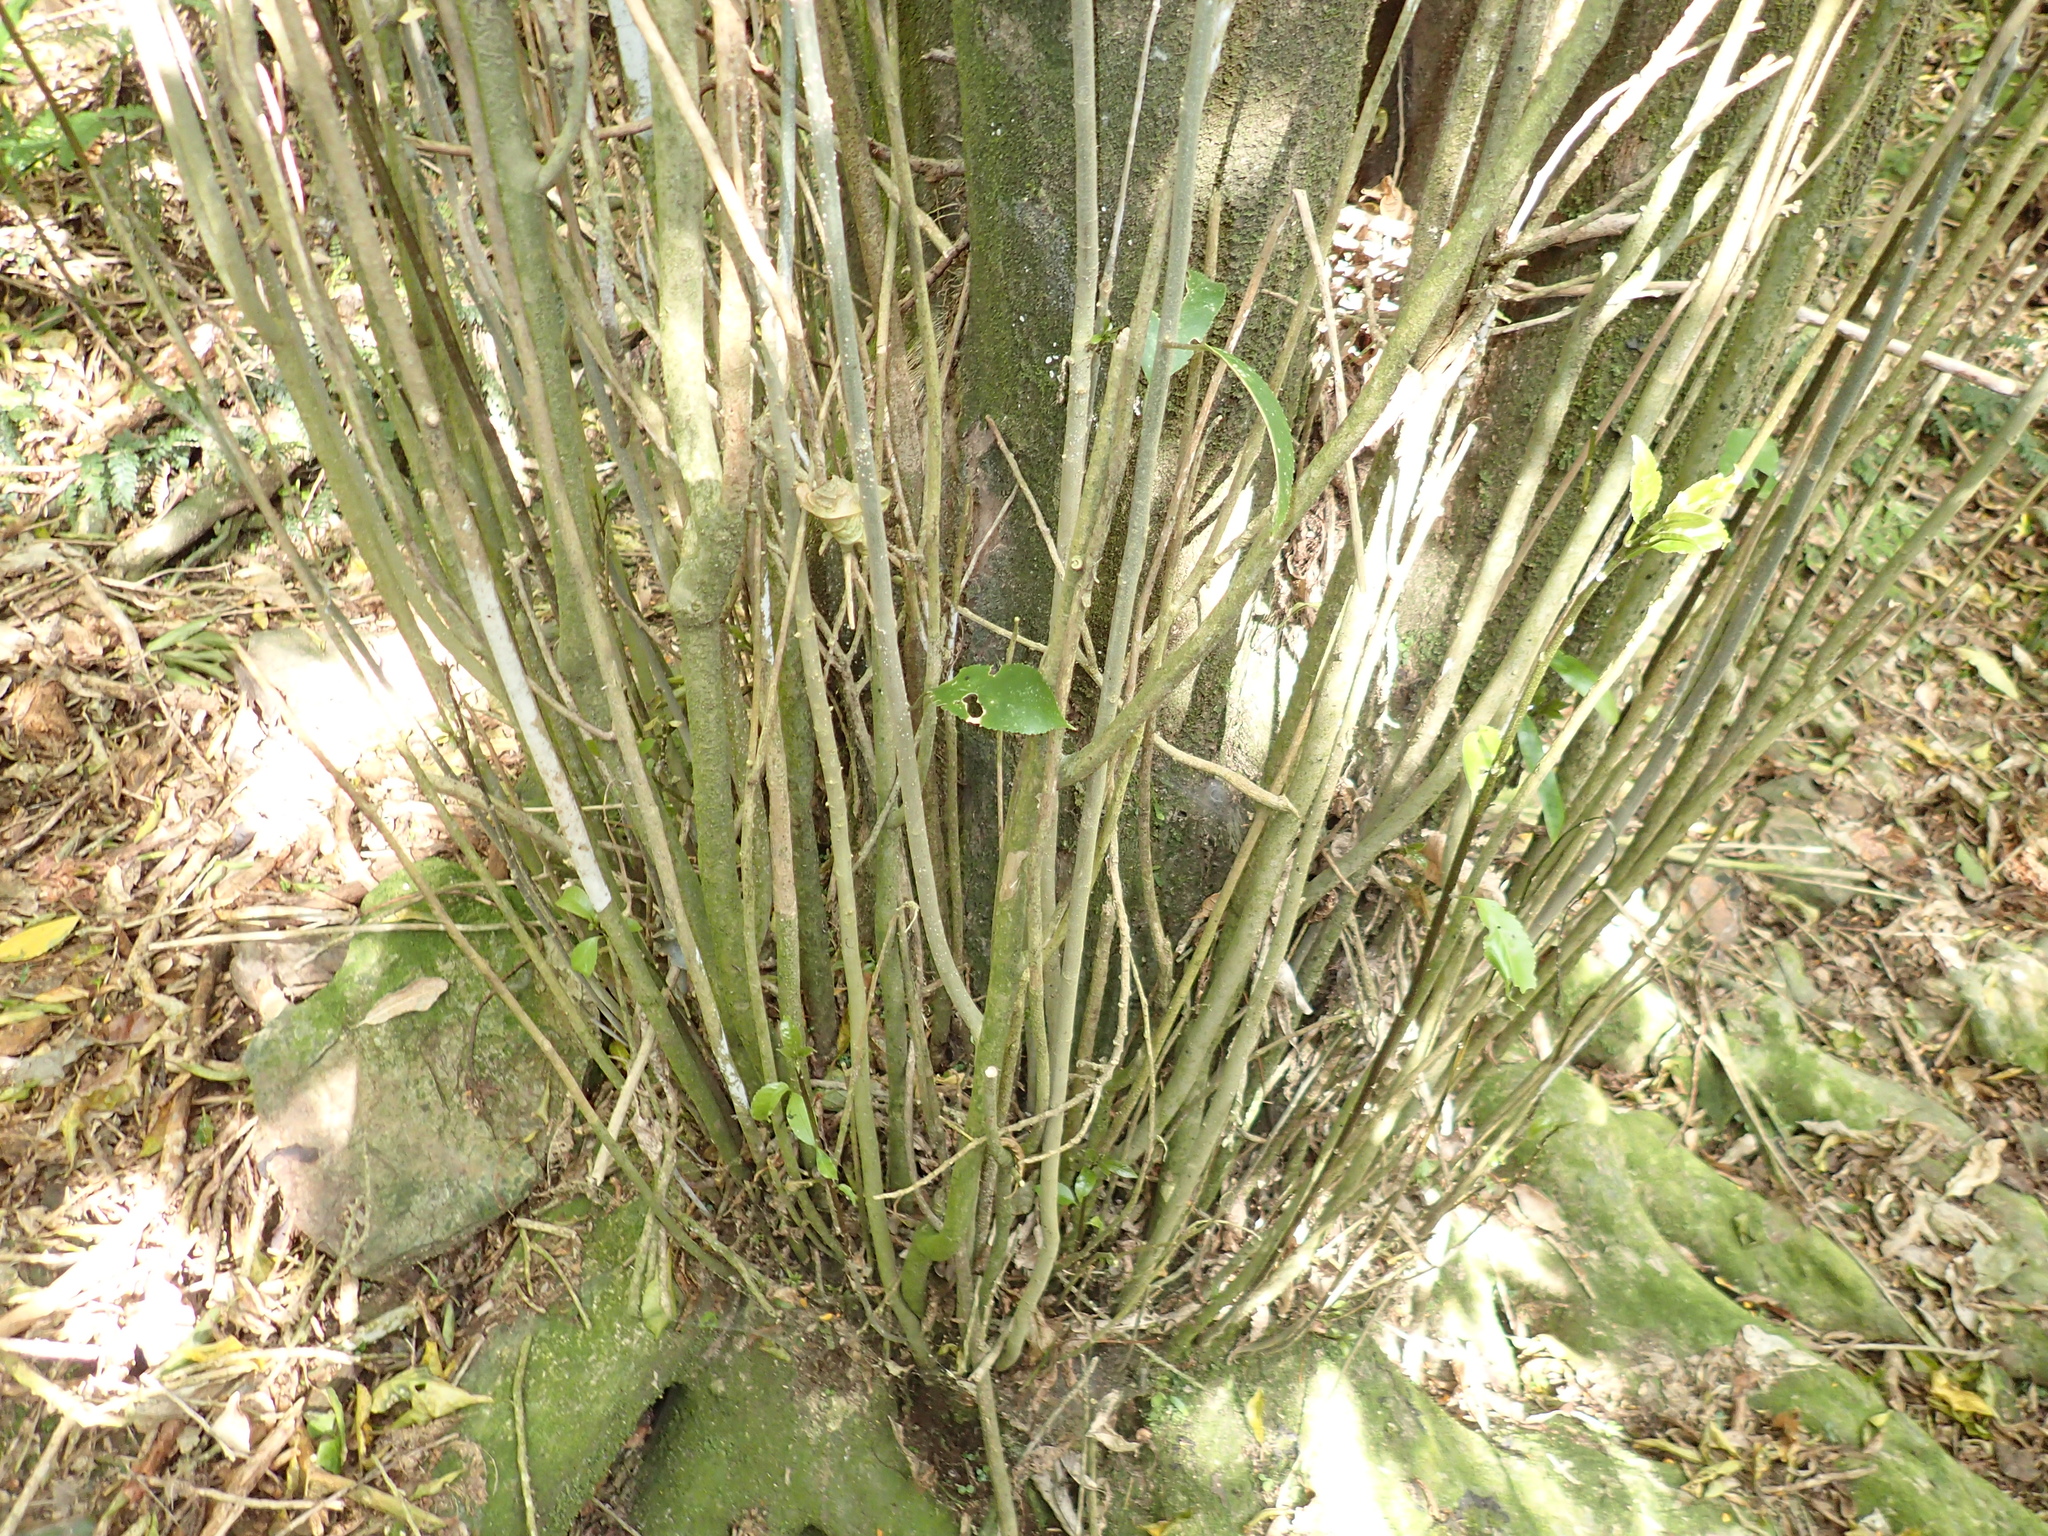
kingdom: Plantae
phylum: Tracheophyta
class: Magnoliopsida
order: Malpighiales
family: Violaceae
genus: Melicytus
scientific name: Melicytus ramiflorus
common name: Mahoe
